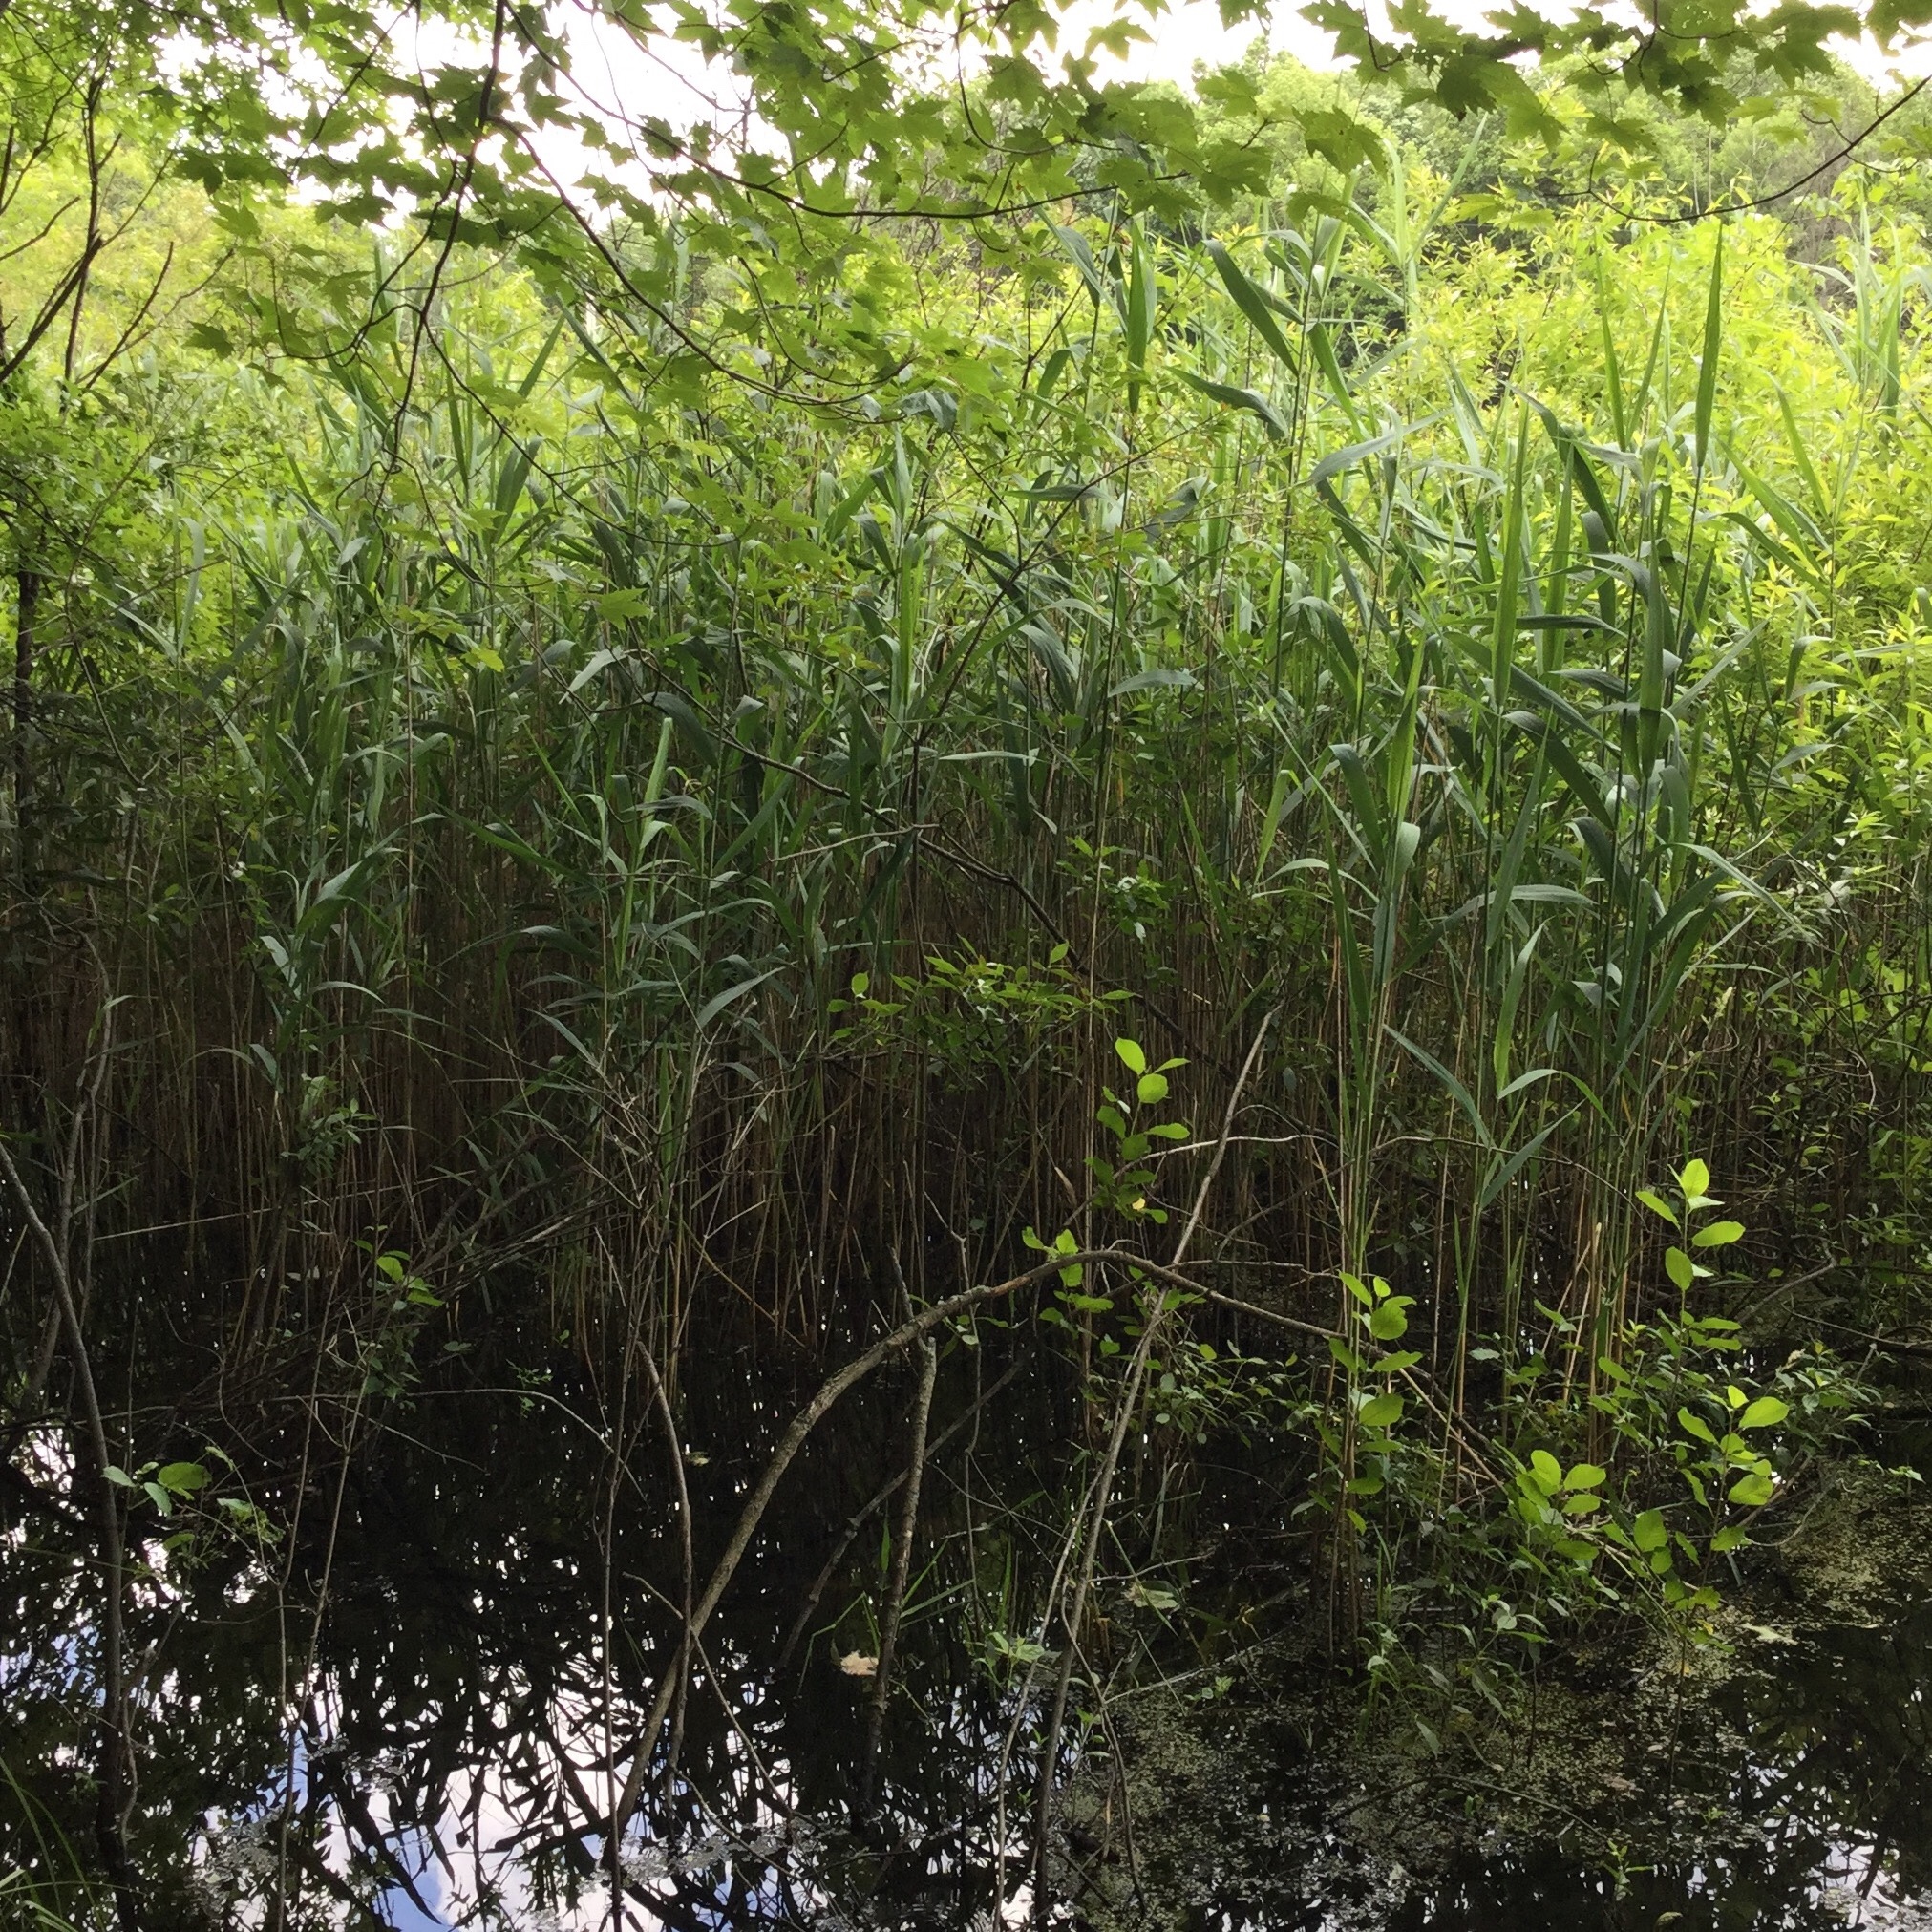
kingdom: Plantae
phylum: Tracheophyta
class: Liliopsida
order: Poales
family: Poaceae
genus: Phragmites
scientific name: Phragmites australis
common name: Common reed
